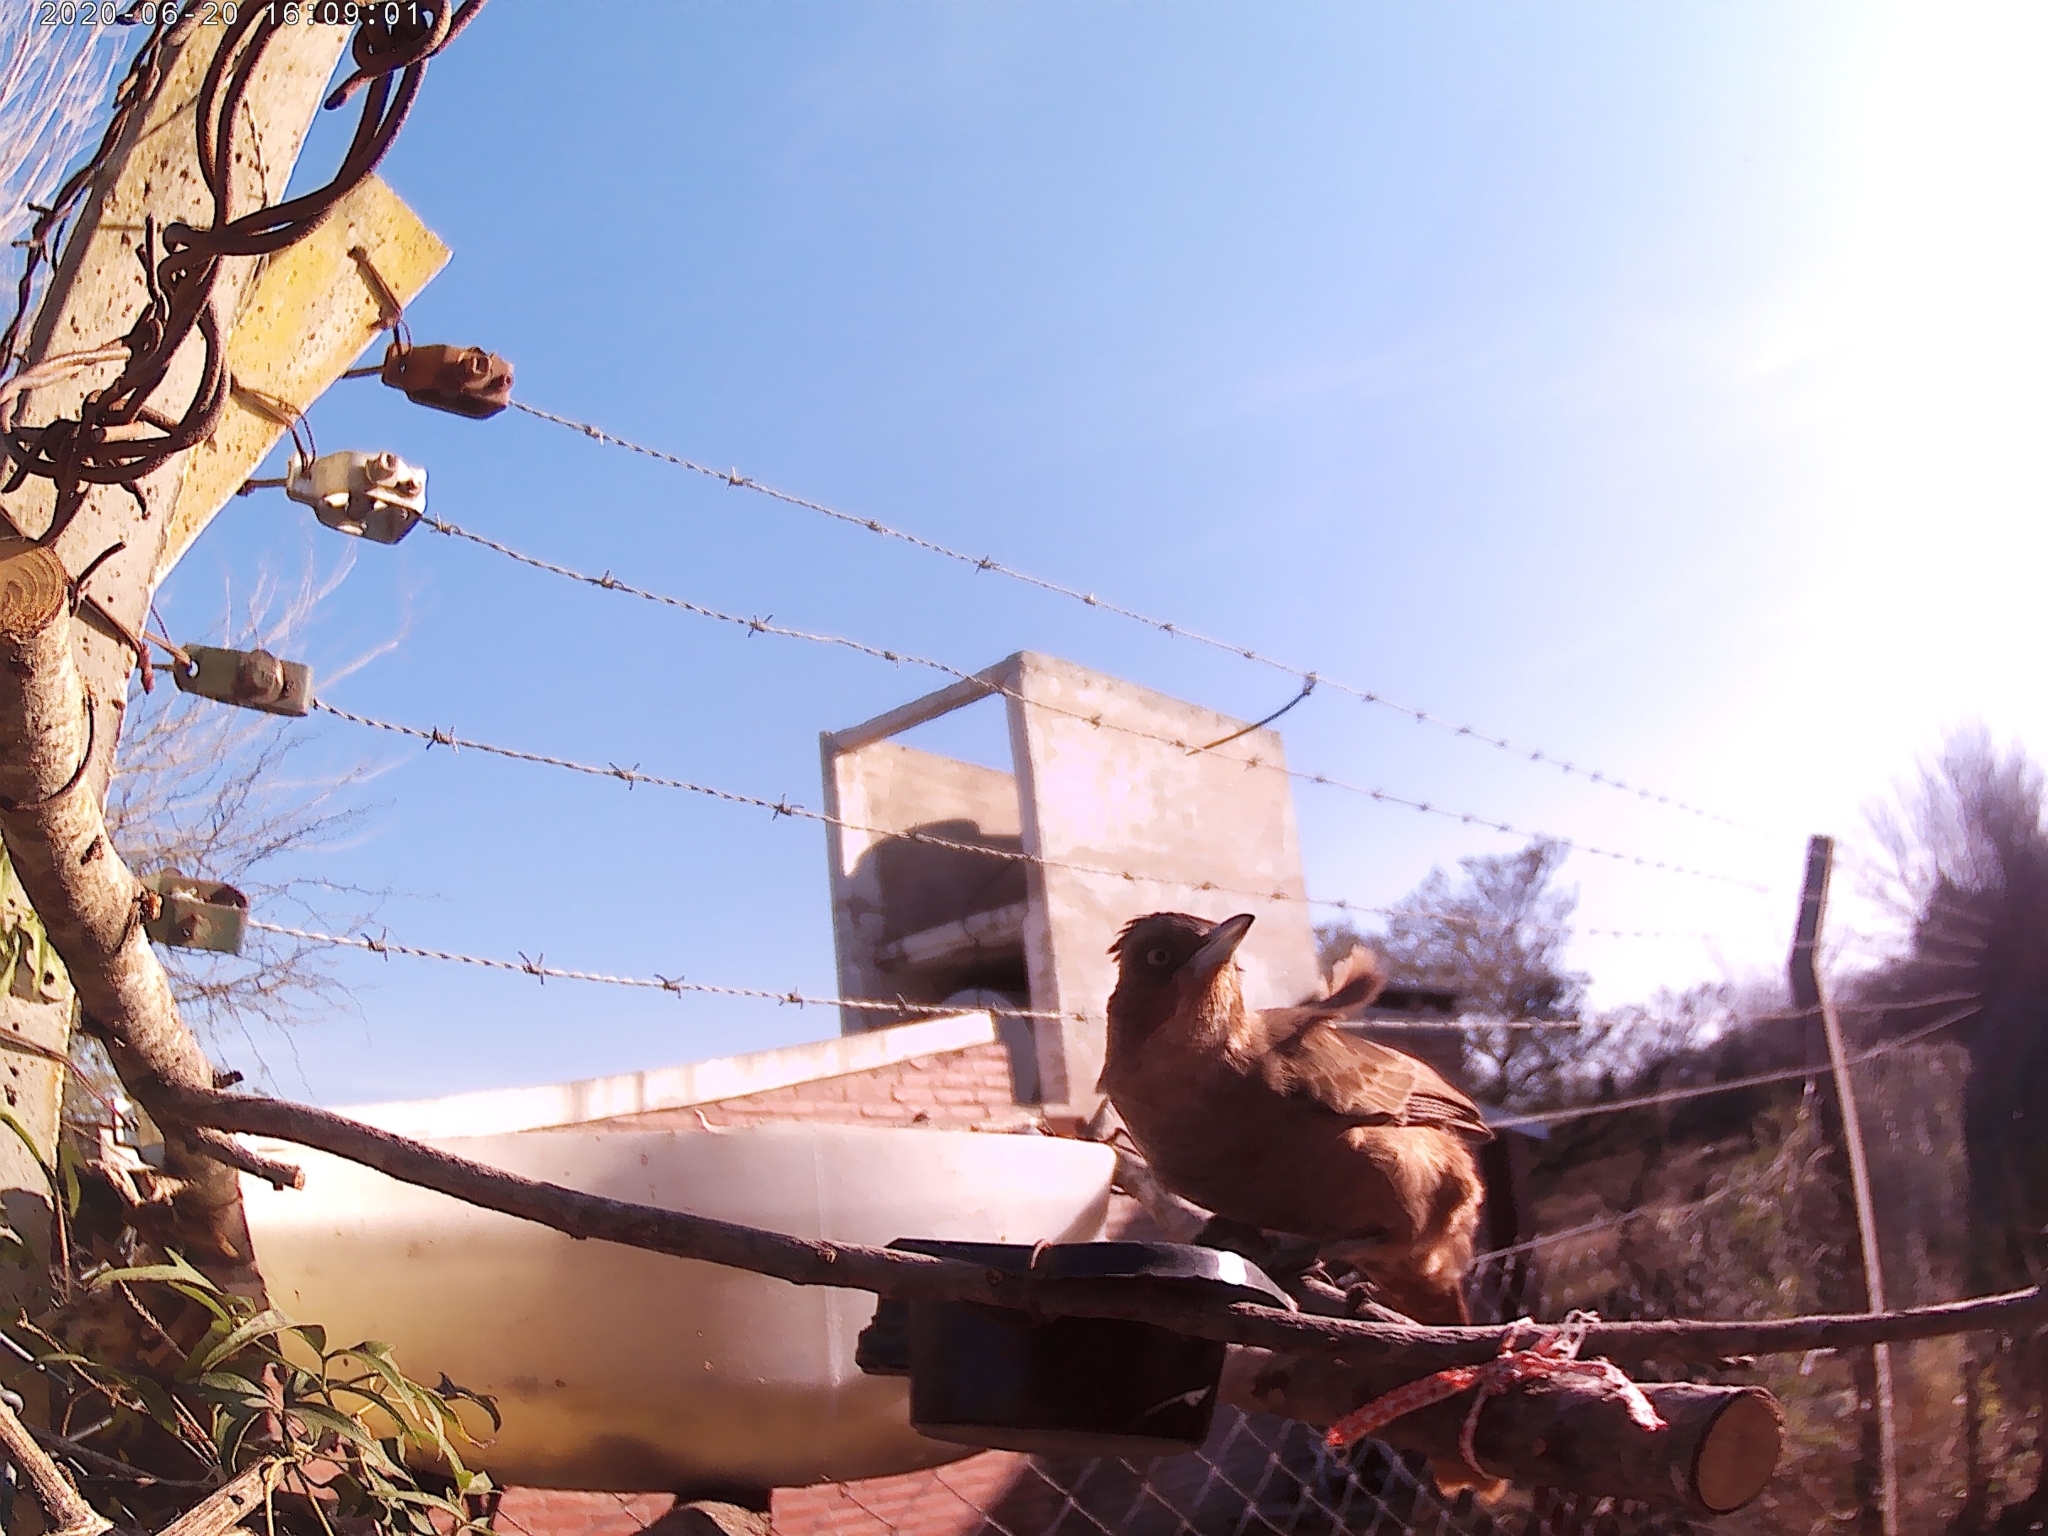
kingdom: Animalia
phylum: Chordata
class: Aves
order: Passeriformes
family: Furnariidae
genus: Pseudoseisura
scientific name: Pseudoseisura lophotes
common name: Brown cacholote
